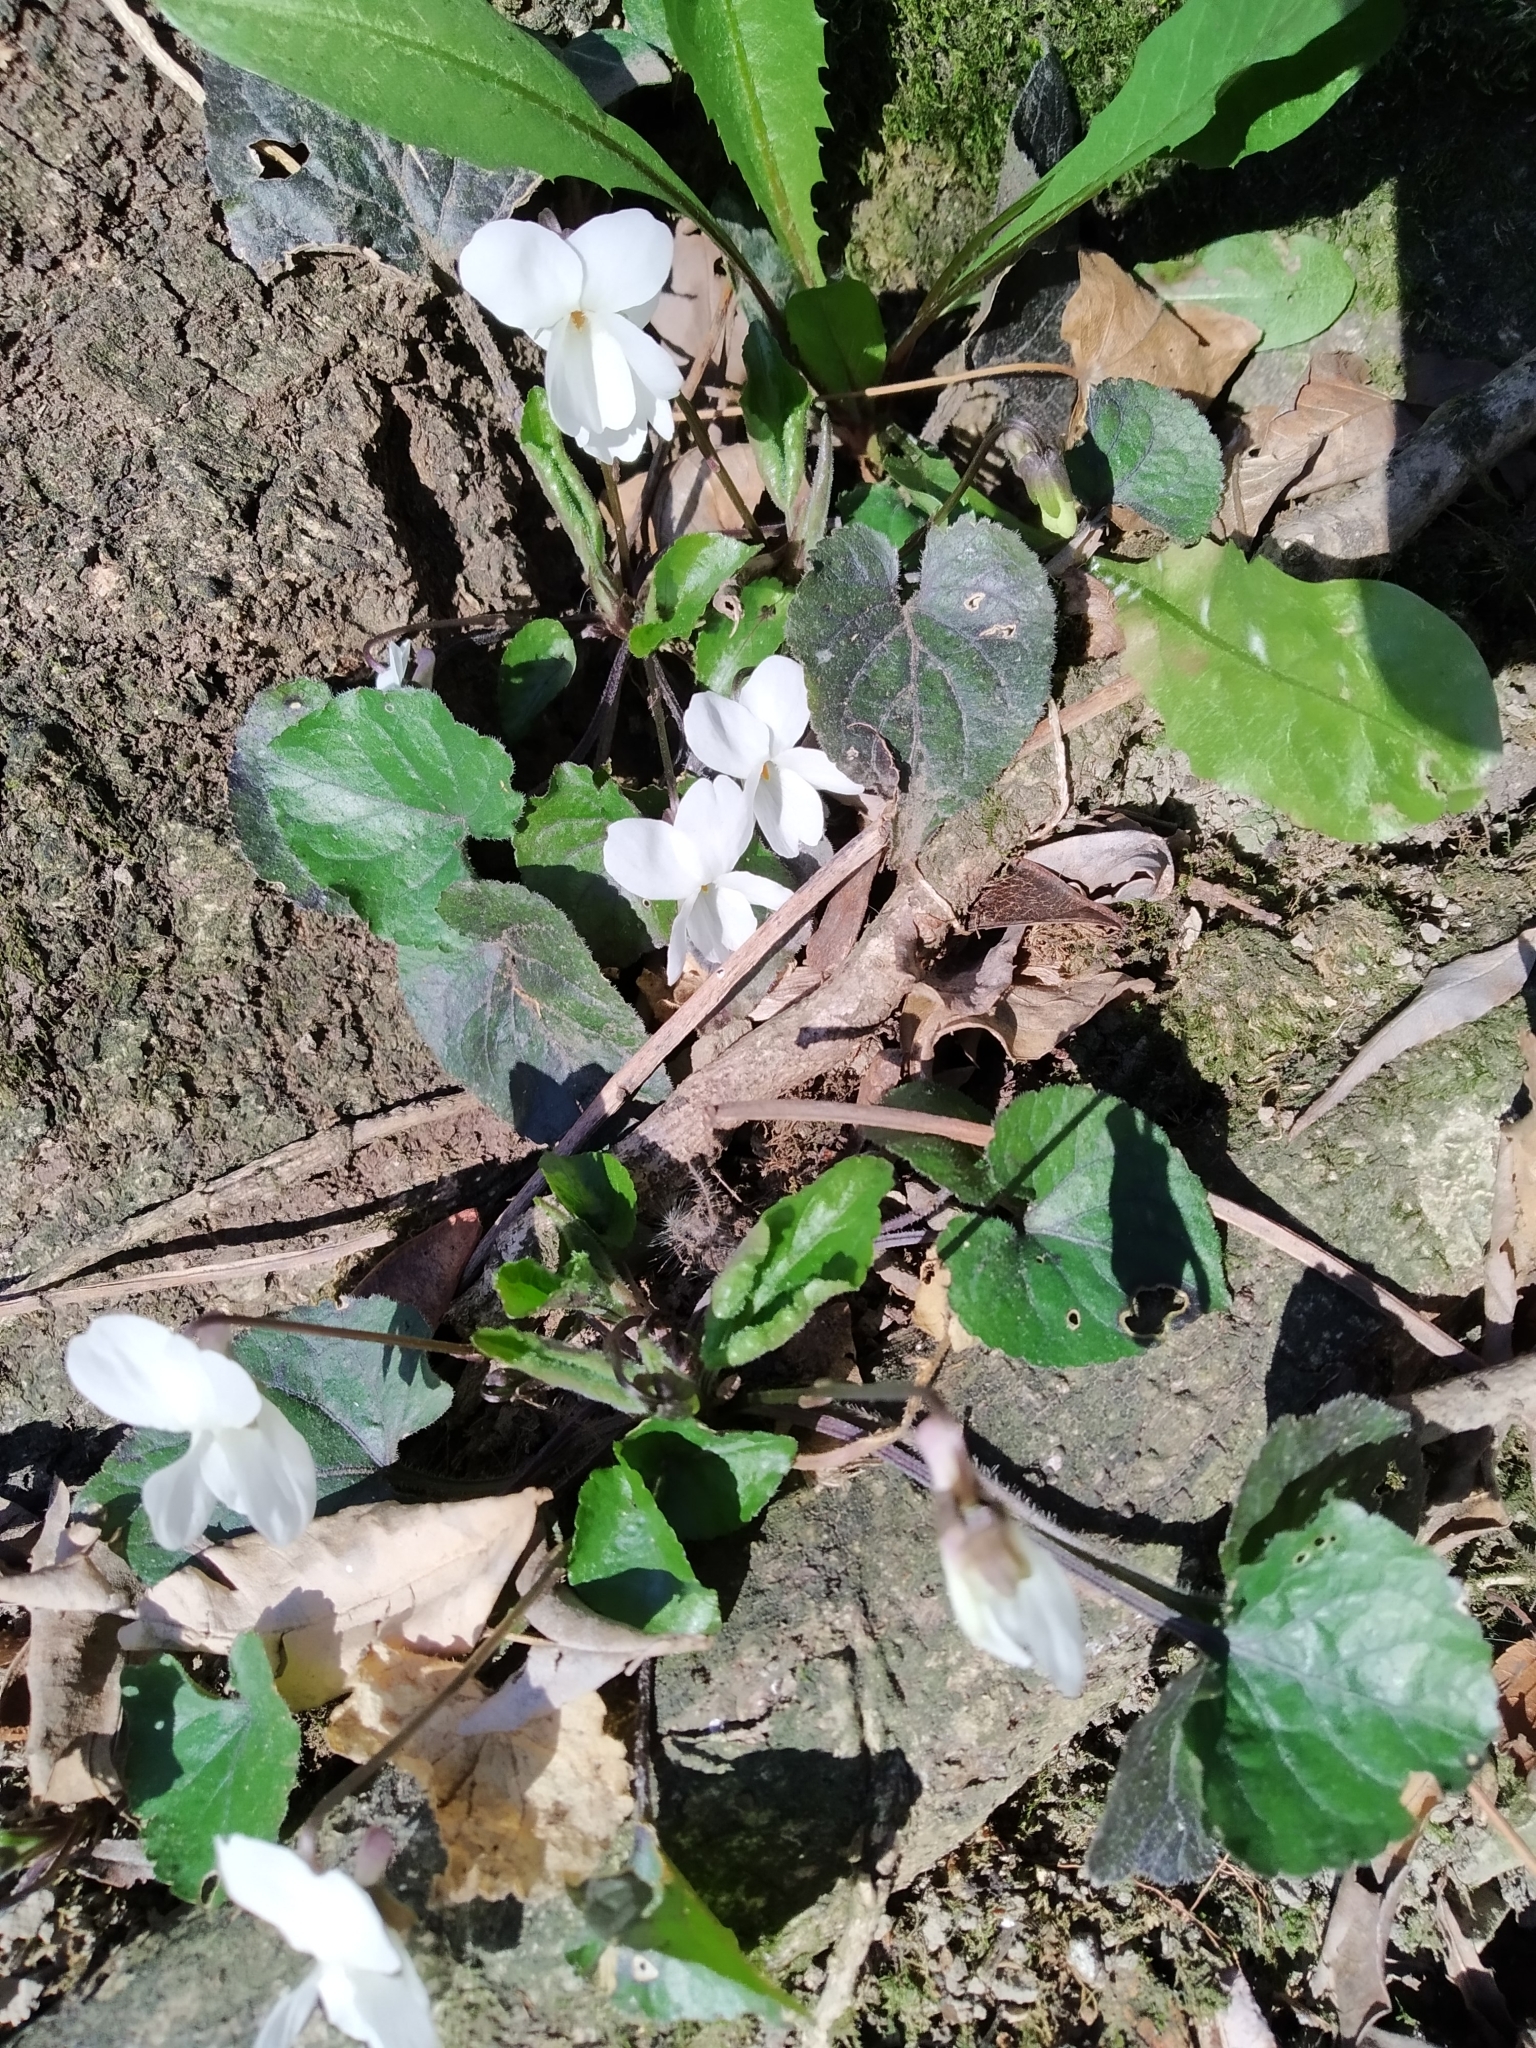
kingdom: Plantae
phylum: Tracheophyta
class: Magnoliopsida
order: Malpighiales
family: Violaceae
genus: Viola
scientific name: Viola alba
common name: White violet
